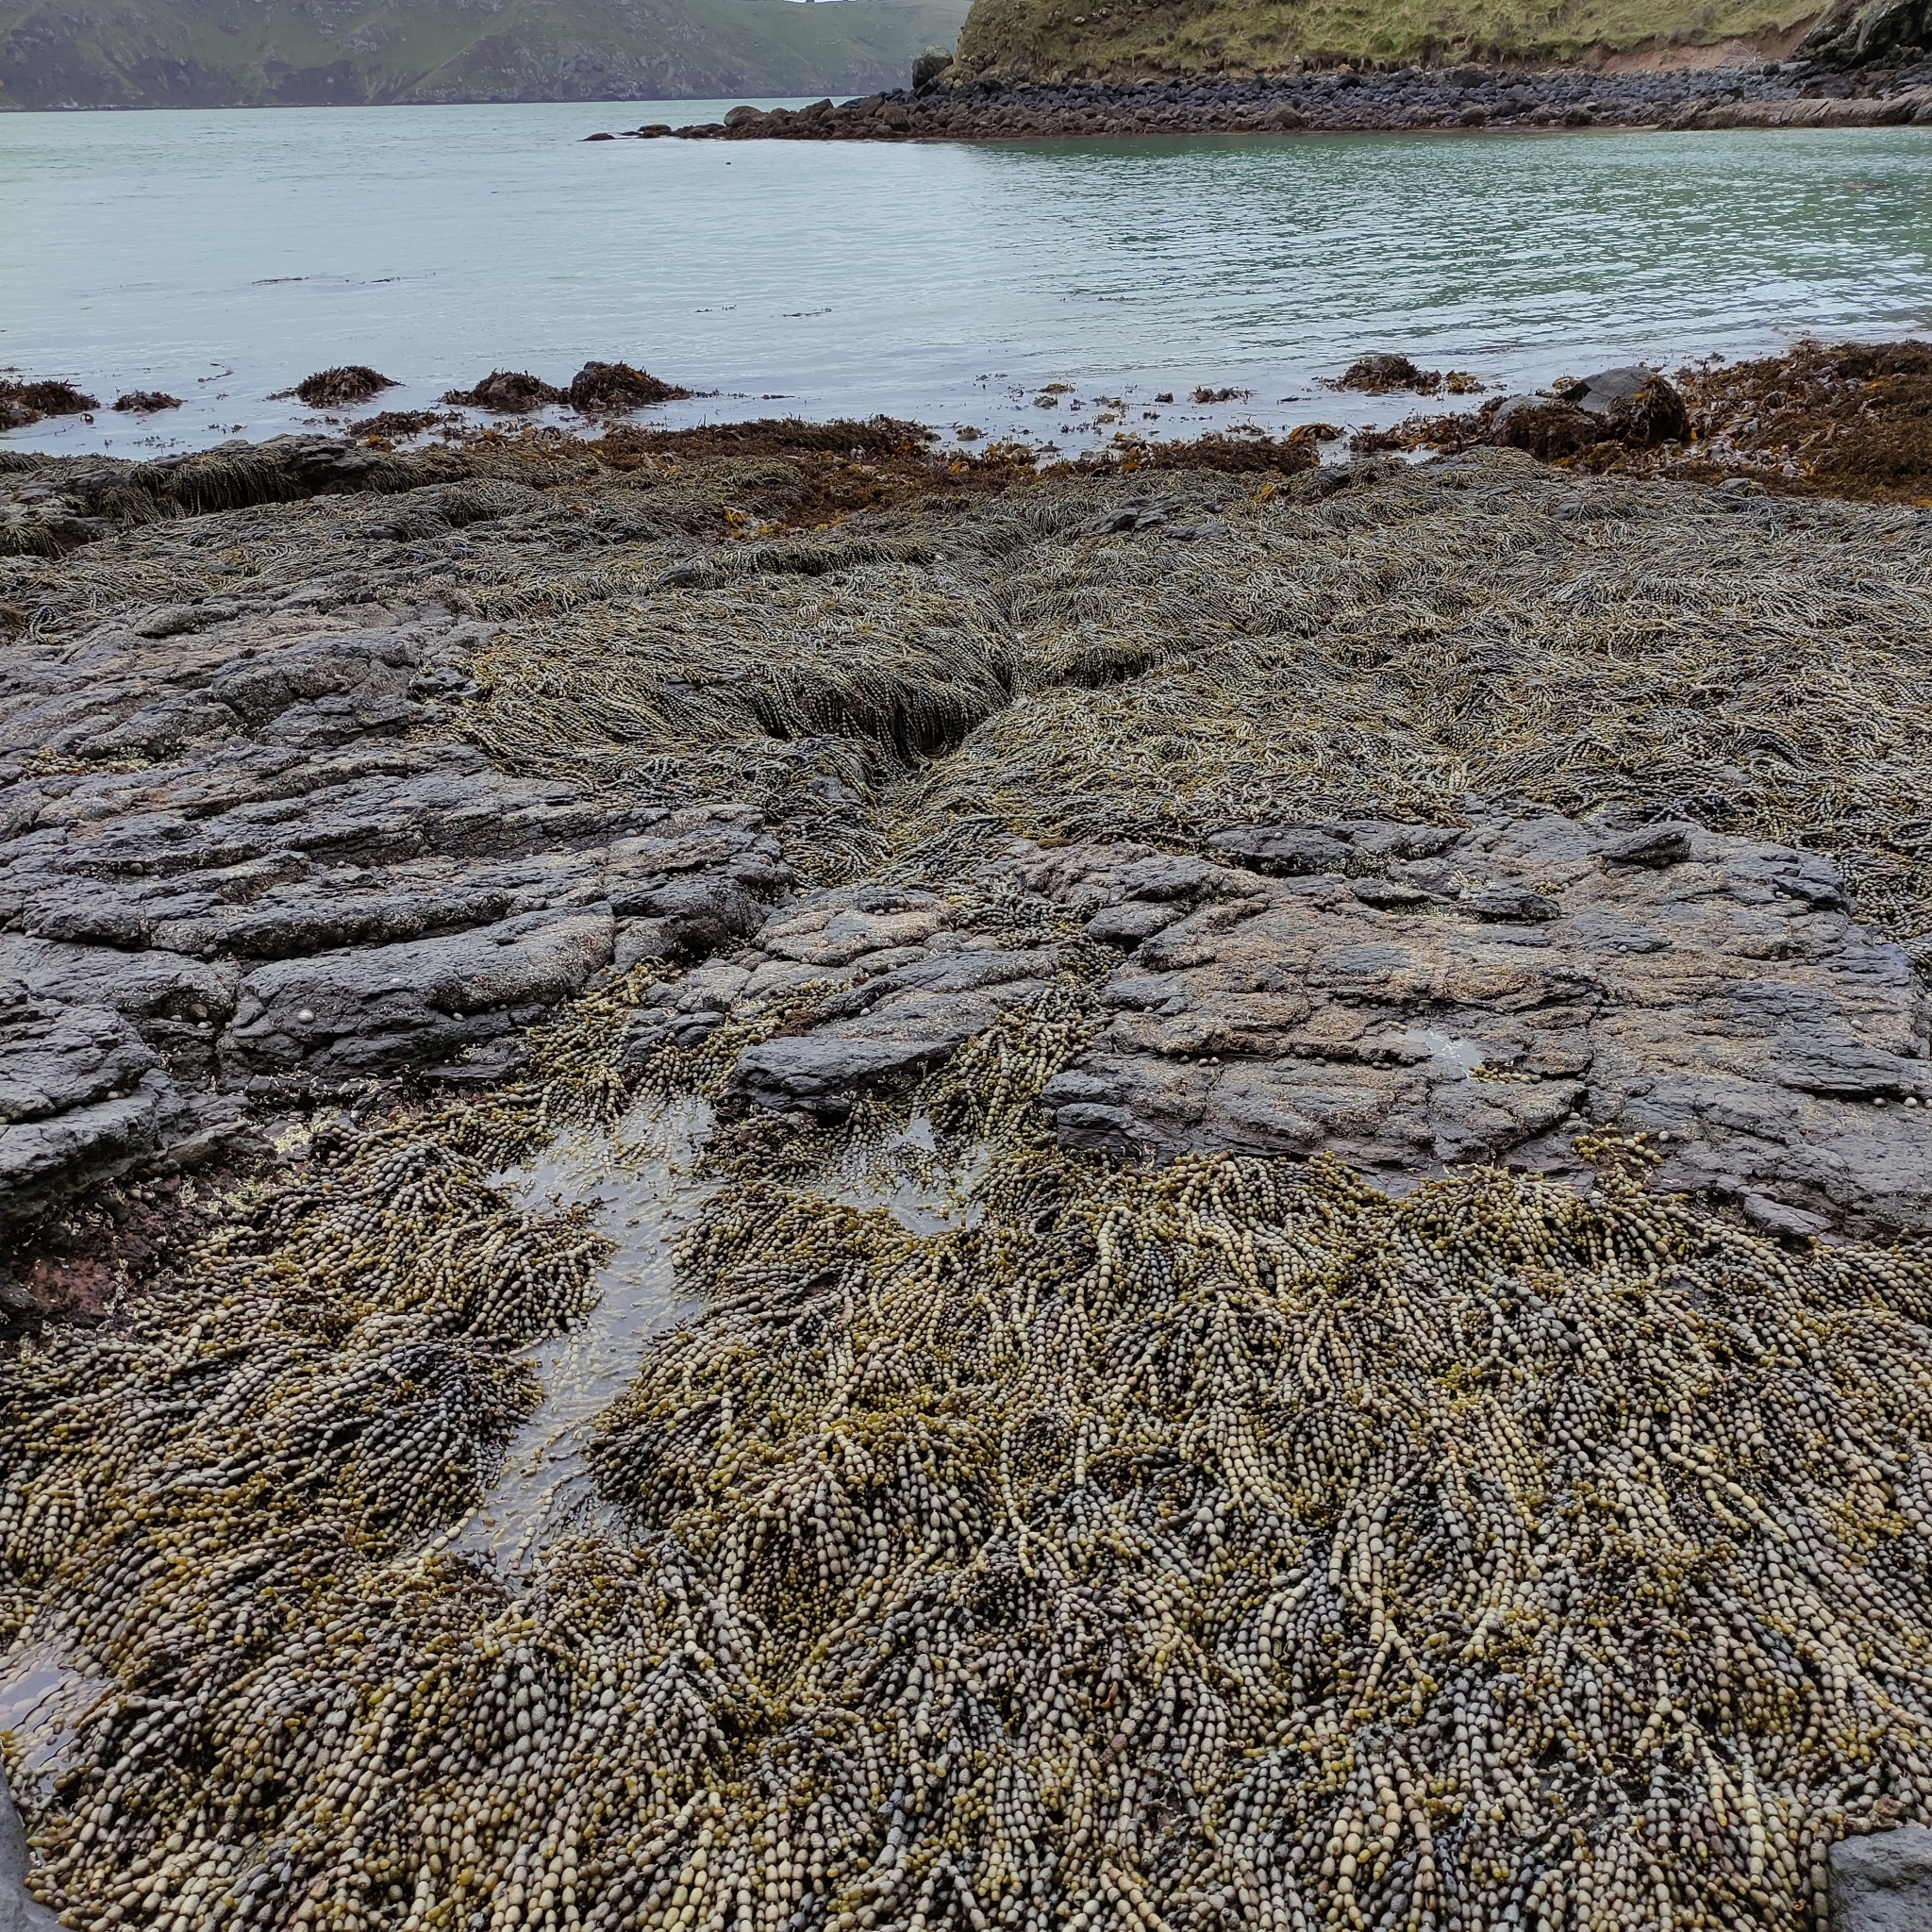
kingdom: Chromista
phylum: Ochrophyta
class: Phaeophyceae
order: Fucales
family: Hormosiraceae
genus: Hormosira
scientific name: Hormosira banksii
